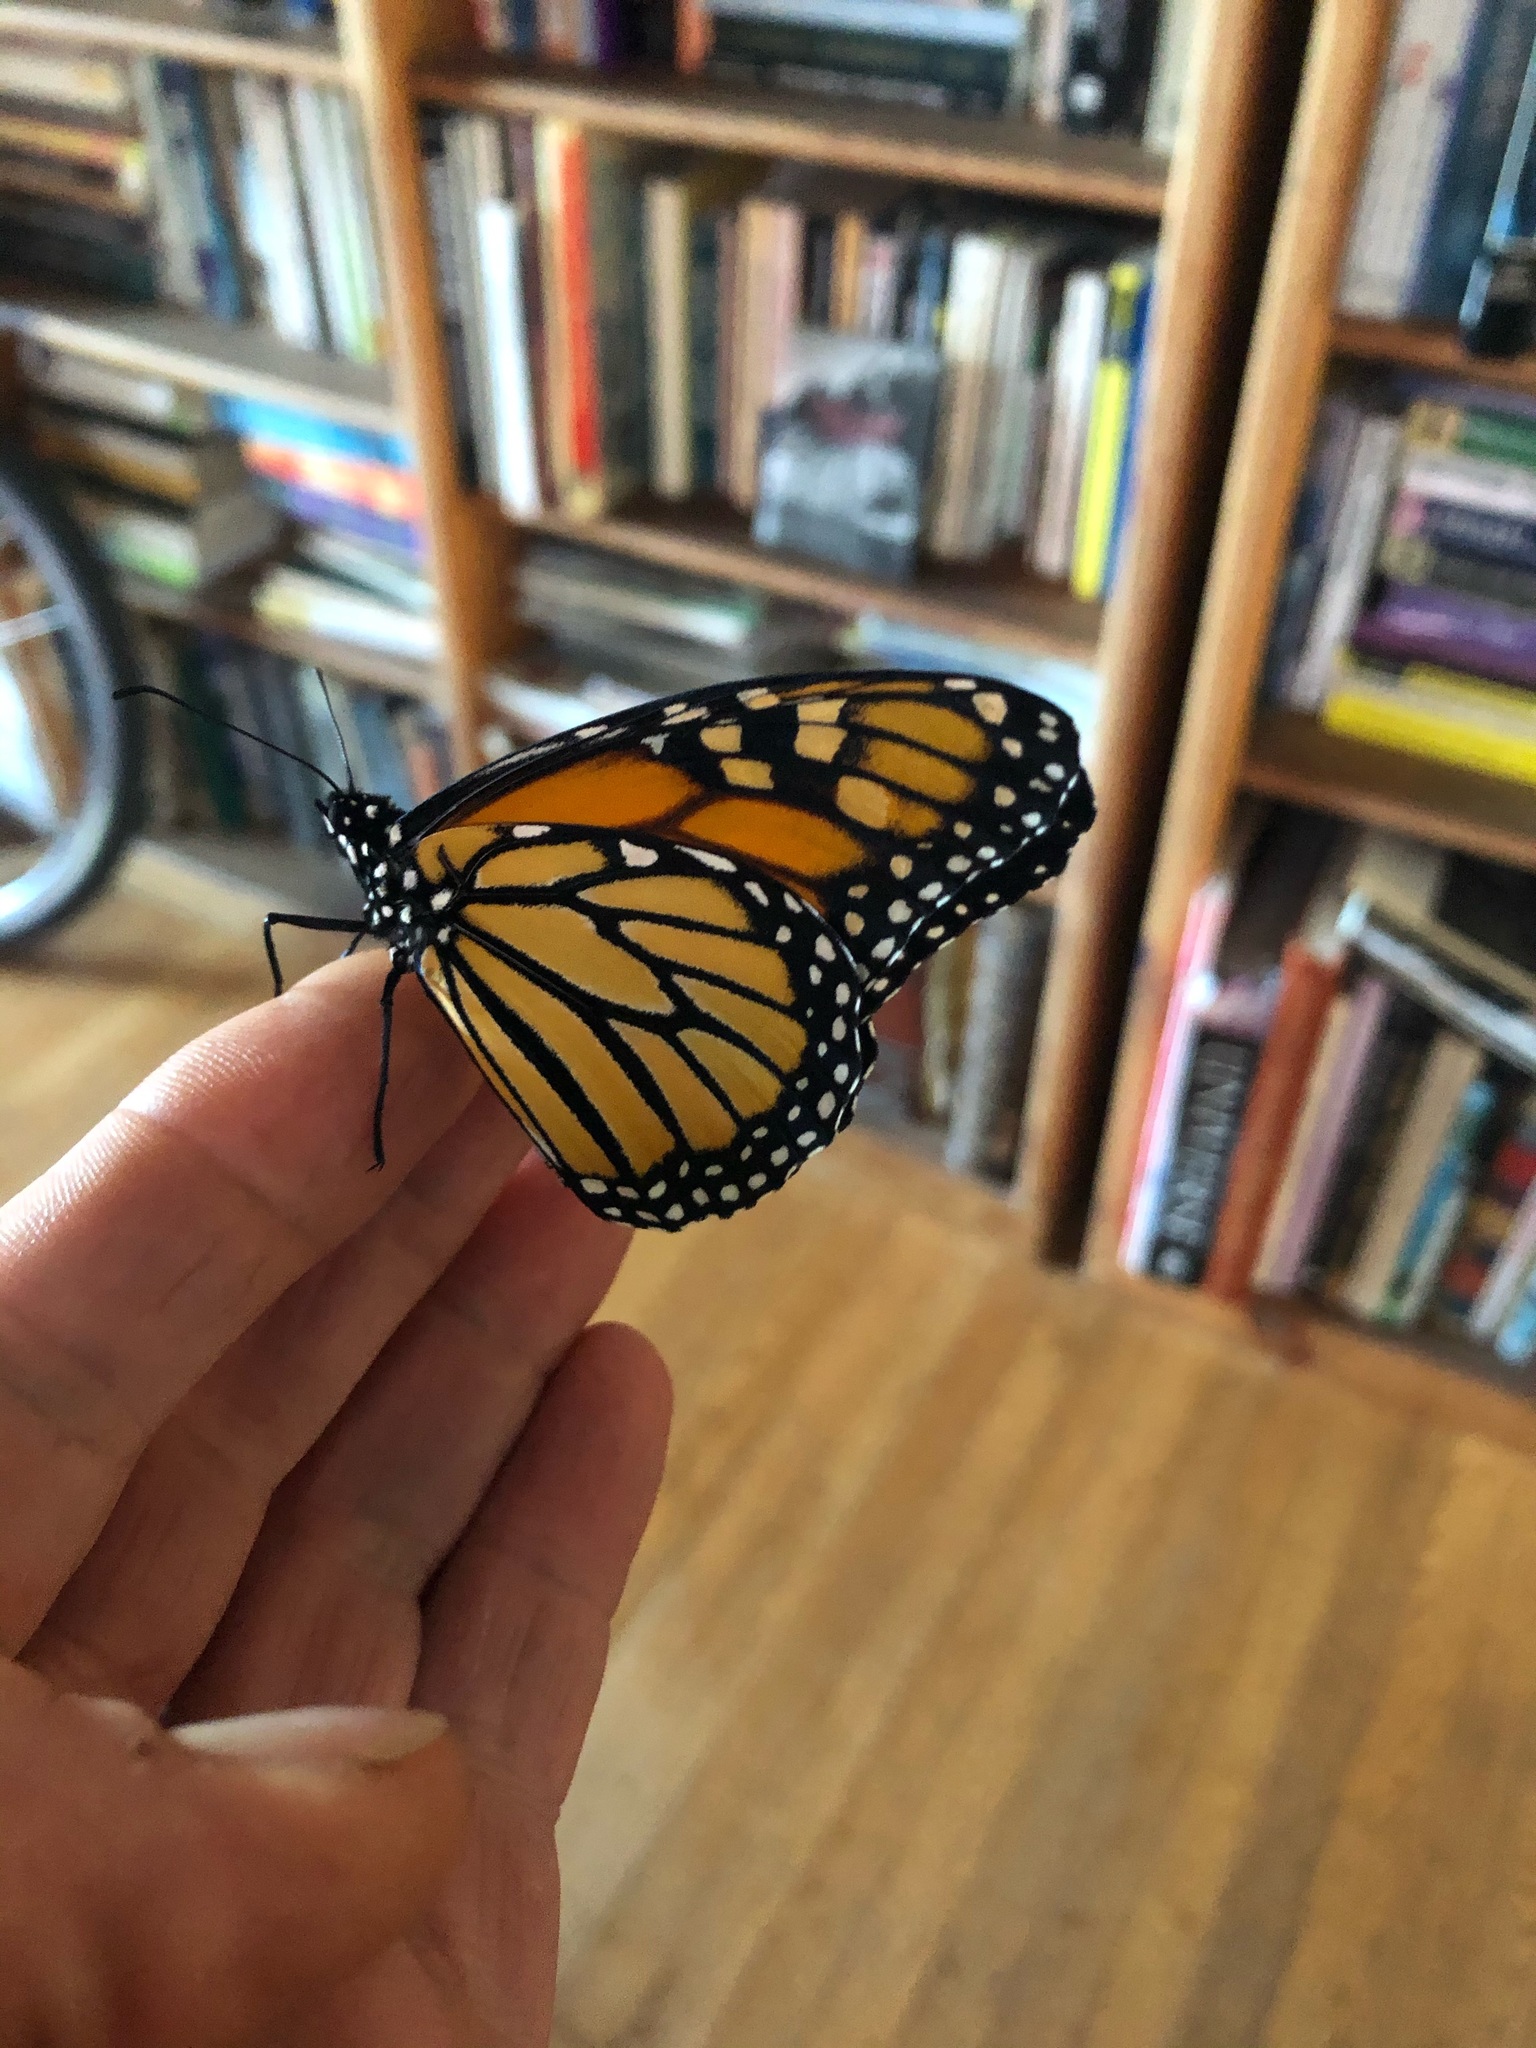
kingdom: Animalia
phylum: Arthropoda
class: Insecta
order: Lepidoptera
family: Nymphalidae
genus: Danaus
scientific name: Danaus plexippus
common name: Monarch
